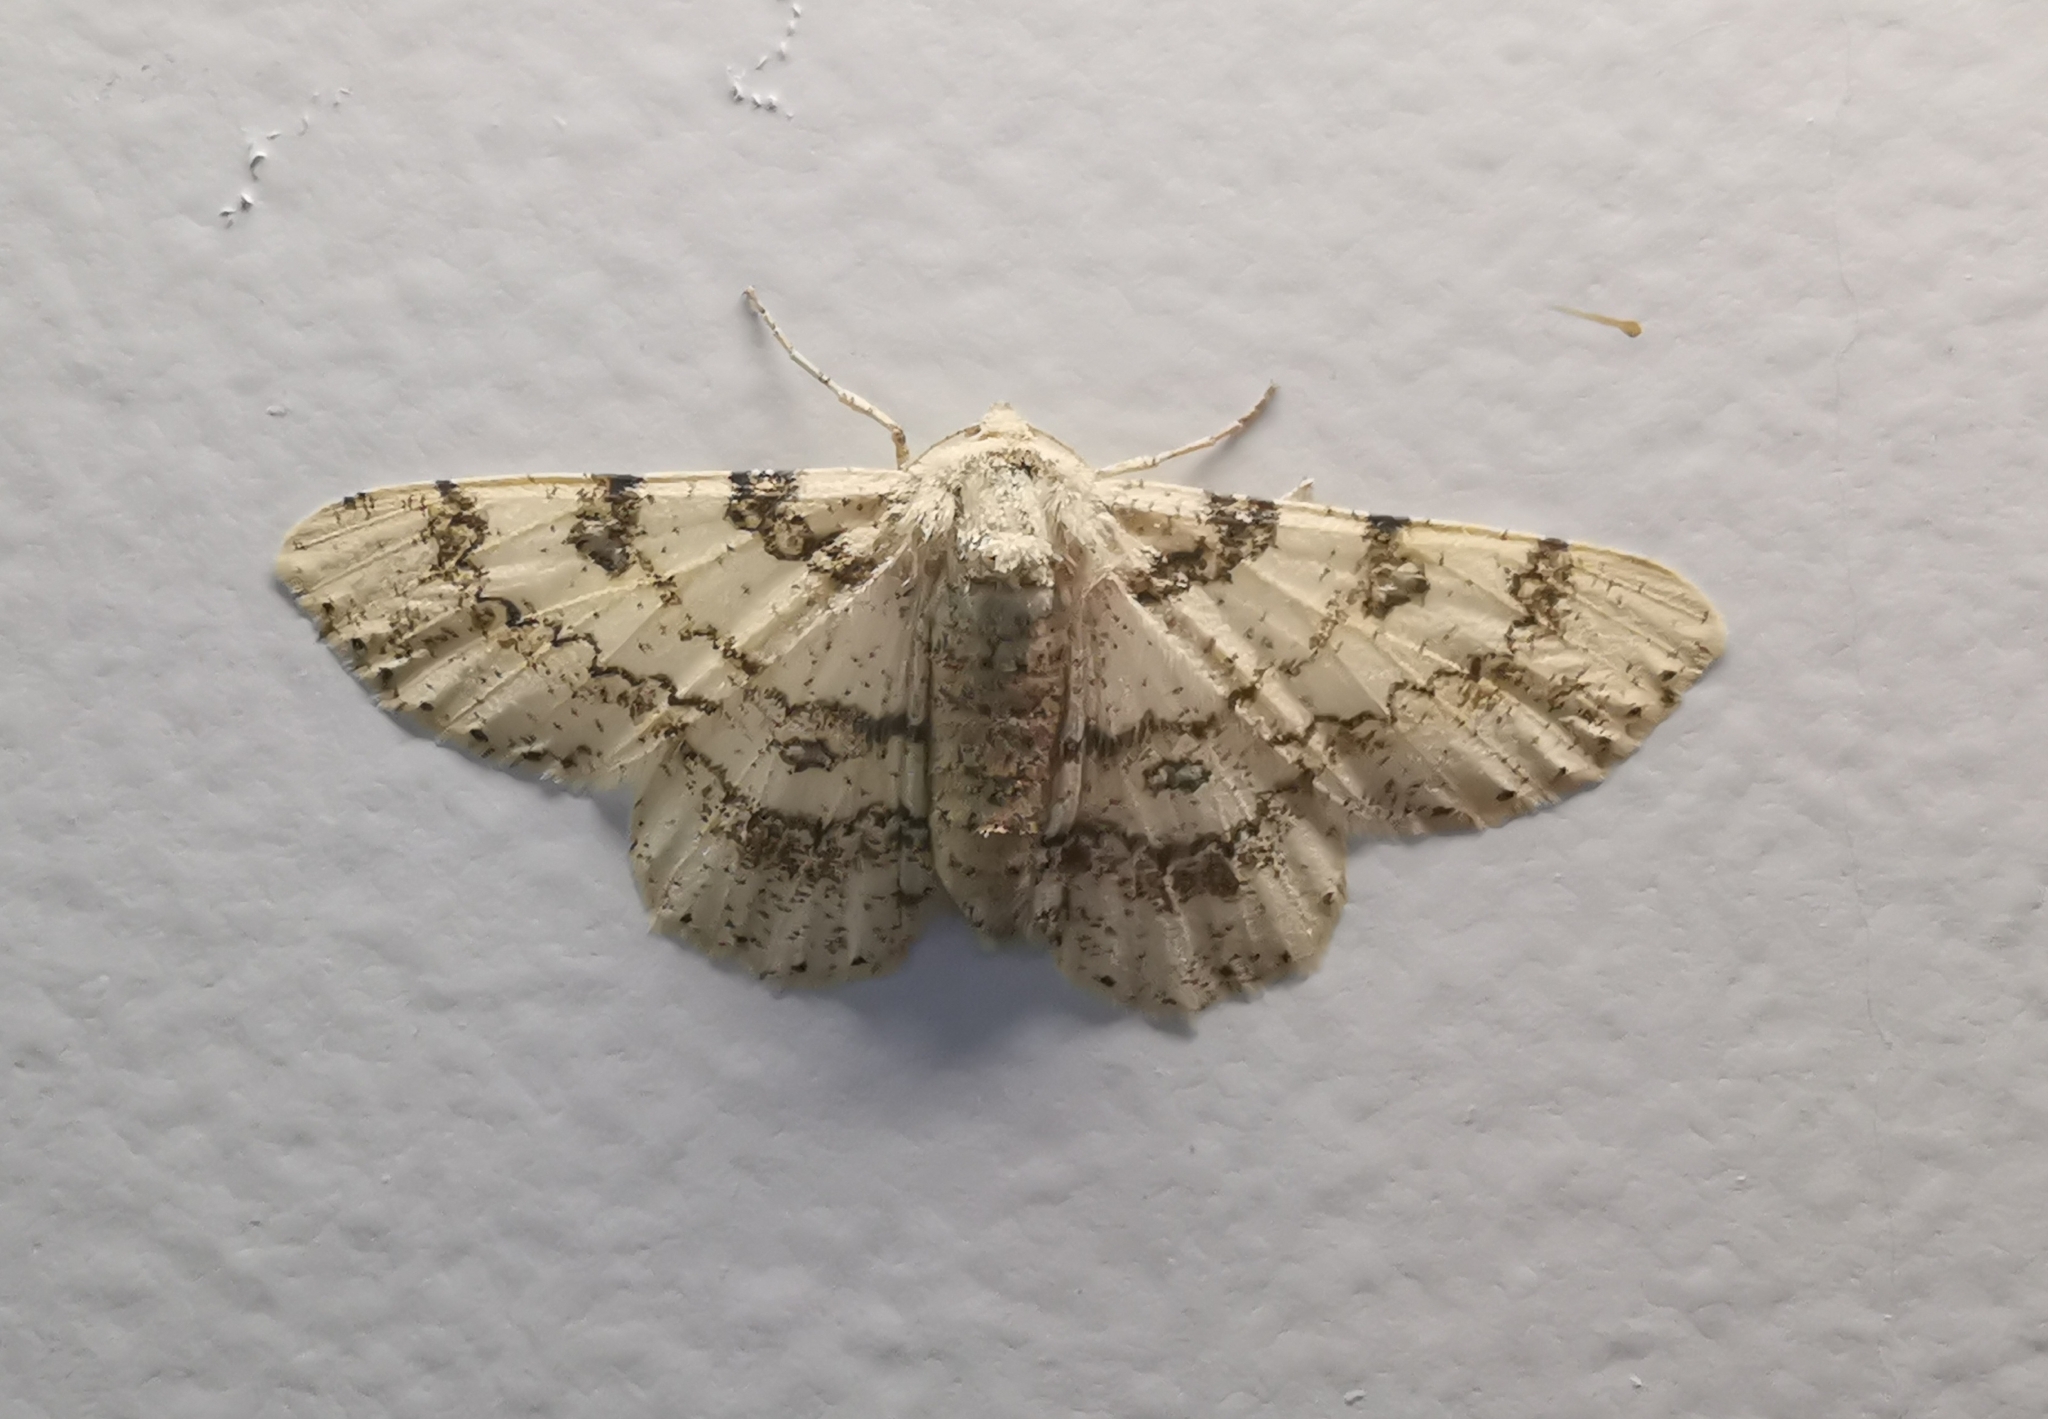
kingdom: Animalia
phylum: Arthropoda
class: Insecta
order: Lepidoptera
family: Geometridae
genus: Ascotis
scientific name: Ascotis selenaria
